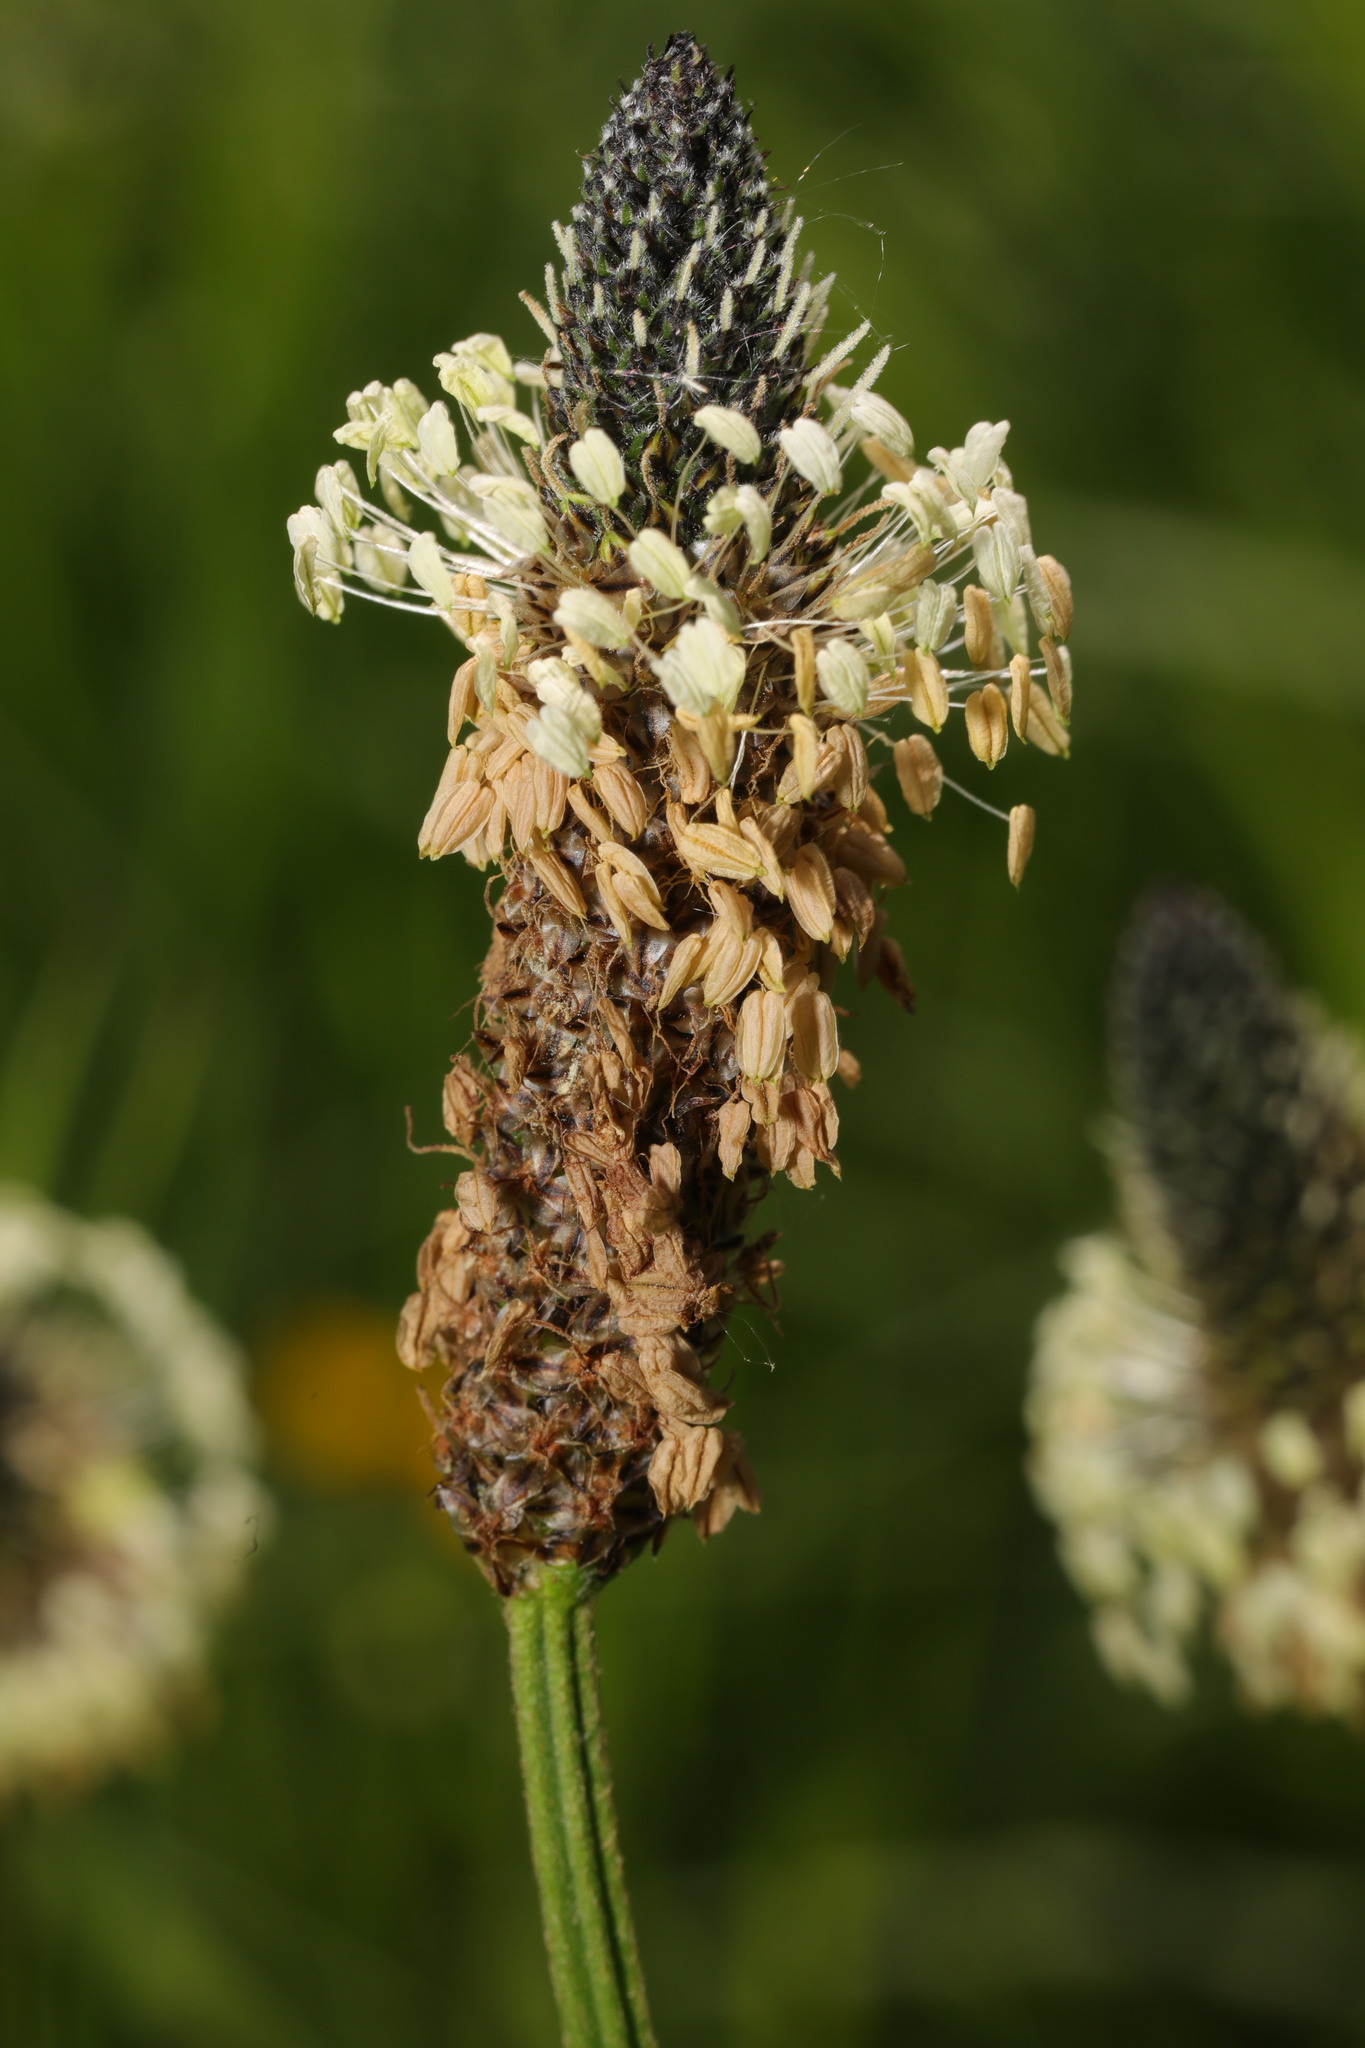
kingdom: Plantae
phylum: Tracheophyta
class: Magnoliopsida
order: Lamiales
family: Plantaginaceae
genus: Plantago
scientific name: Plantago lanceolata
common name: Ribwort plantain
